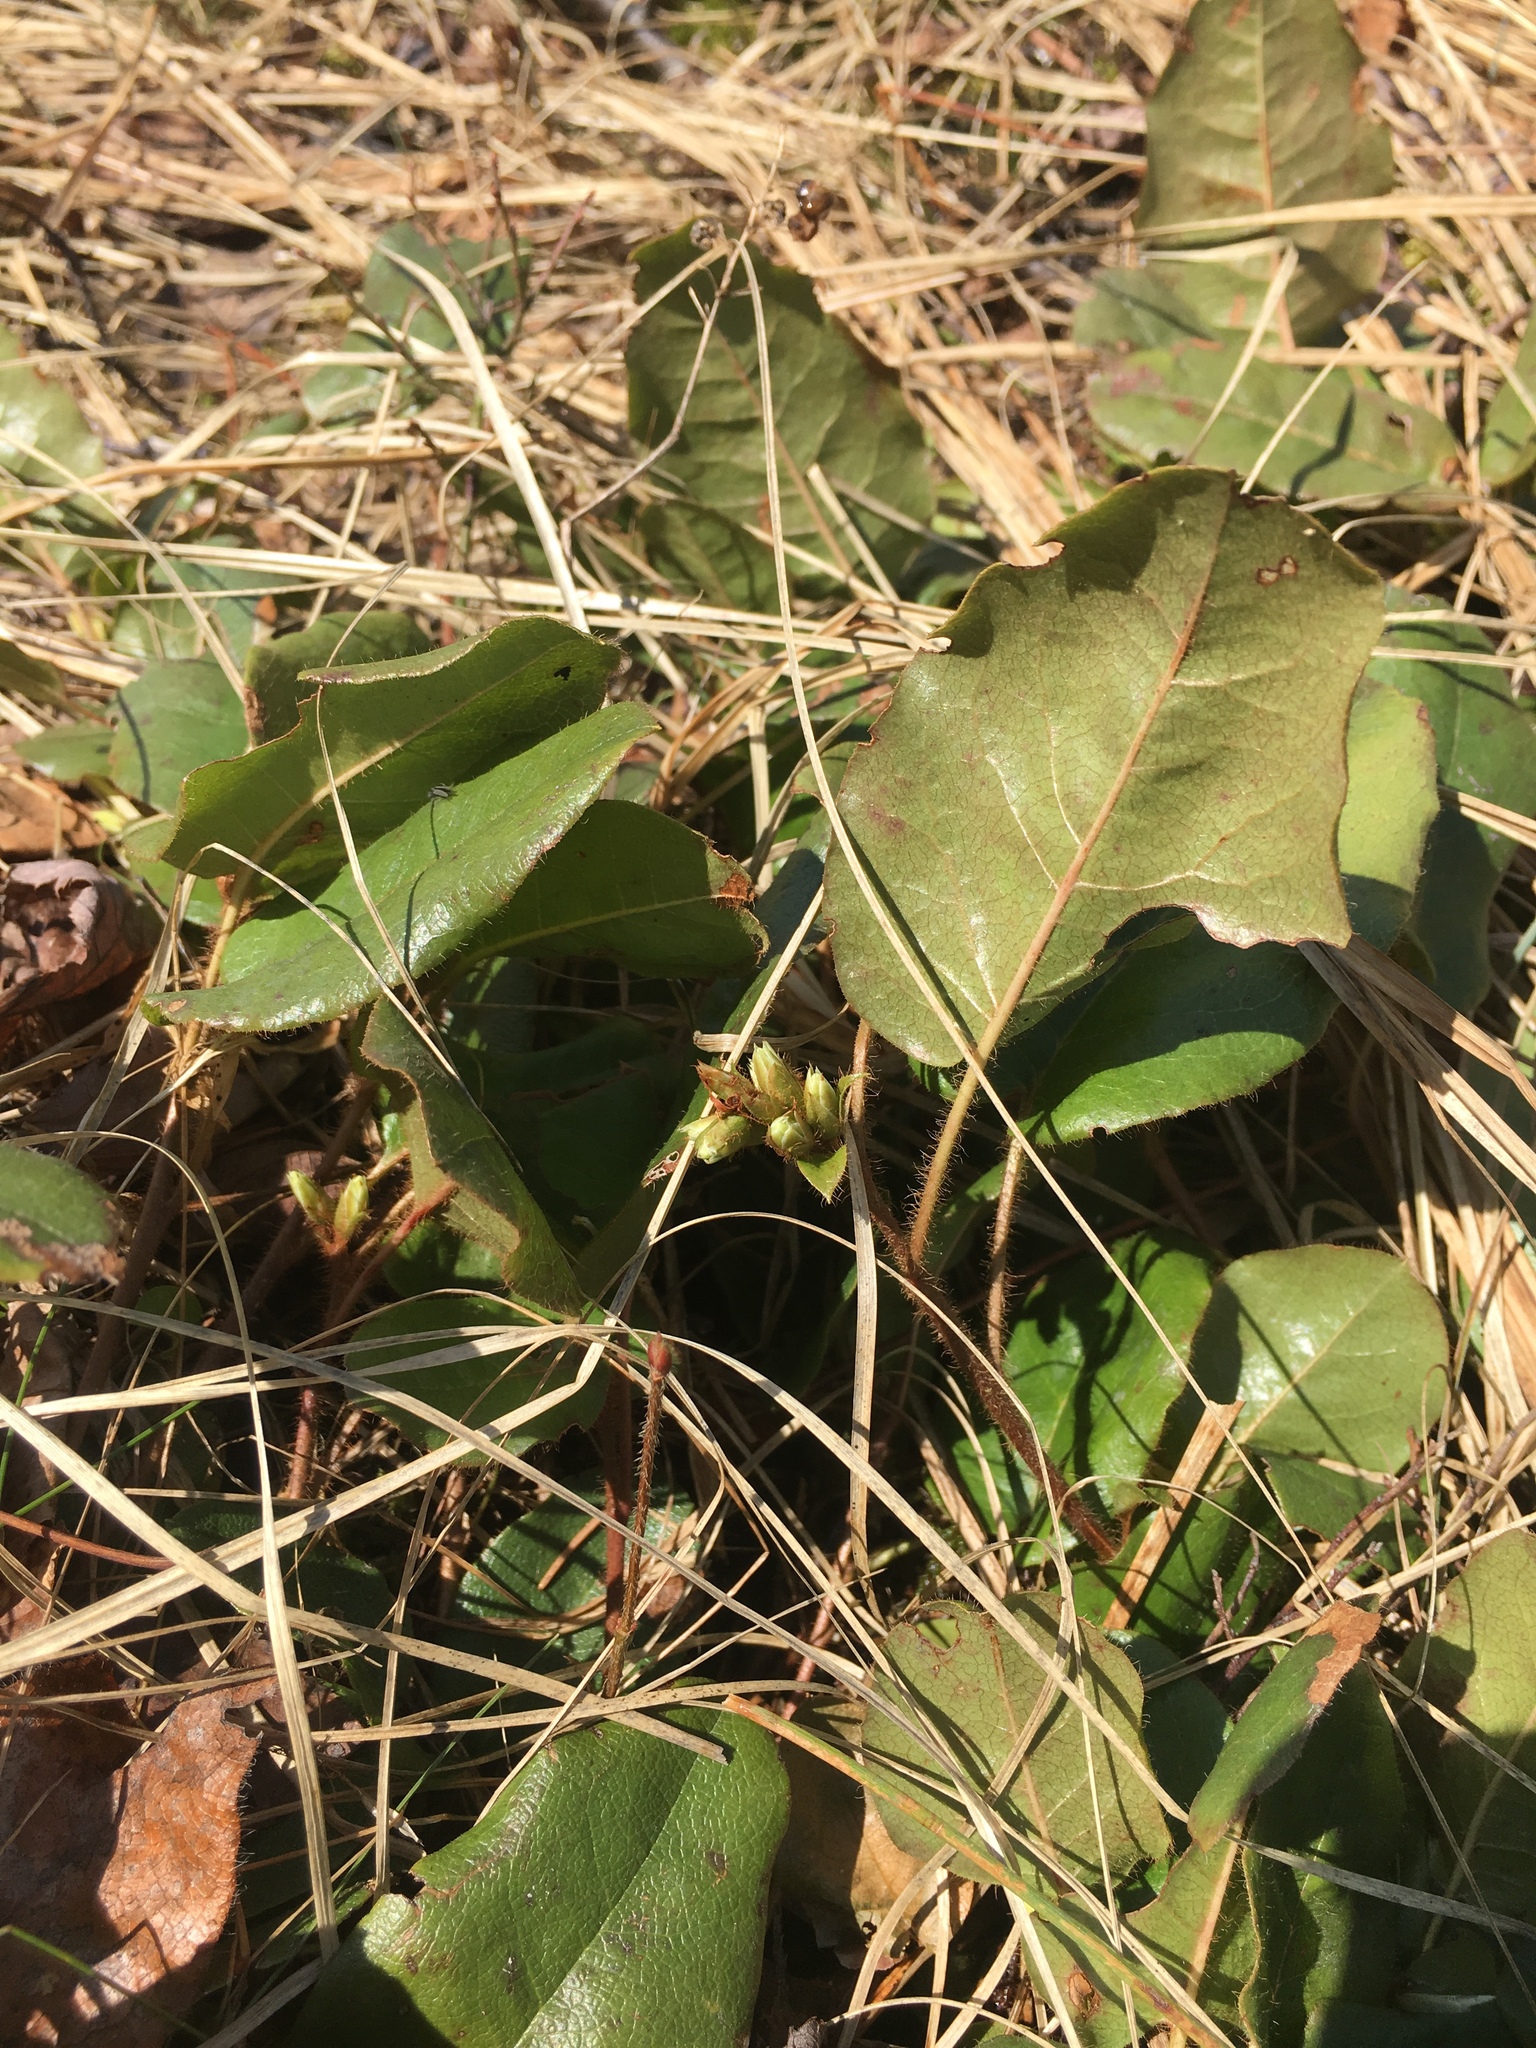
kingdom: Plantae
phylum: Tracheophyta
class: Magnoliopsida
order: Ericales
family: Ericaceae
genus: Epigaea
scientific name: Epigaea repens
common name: Gravelroot
